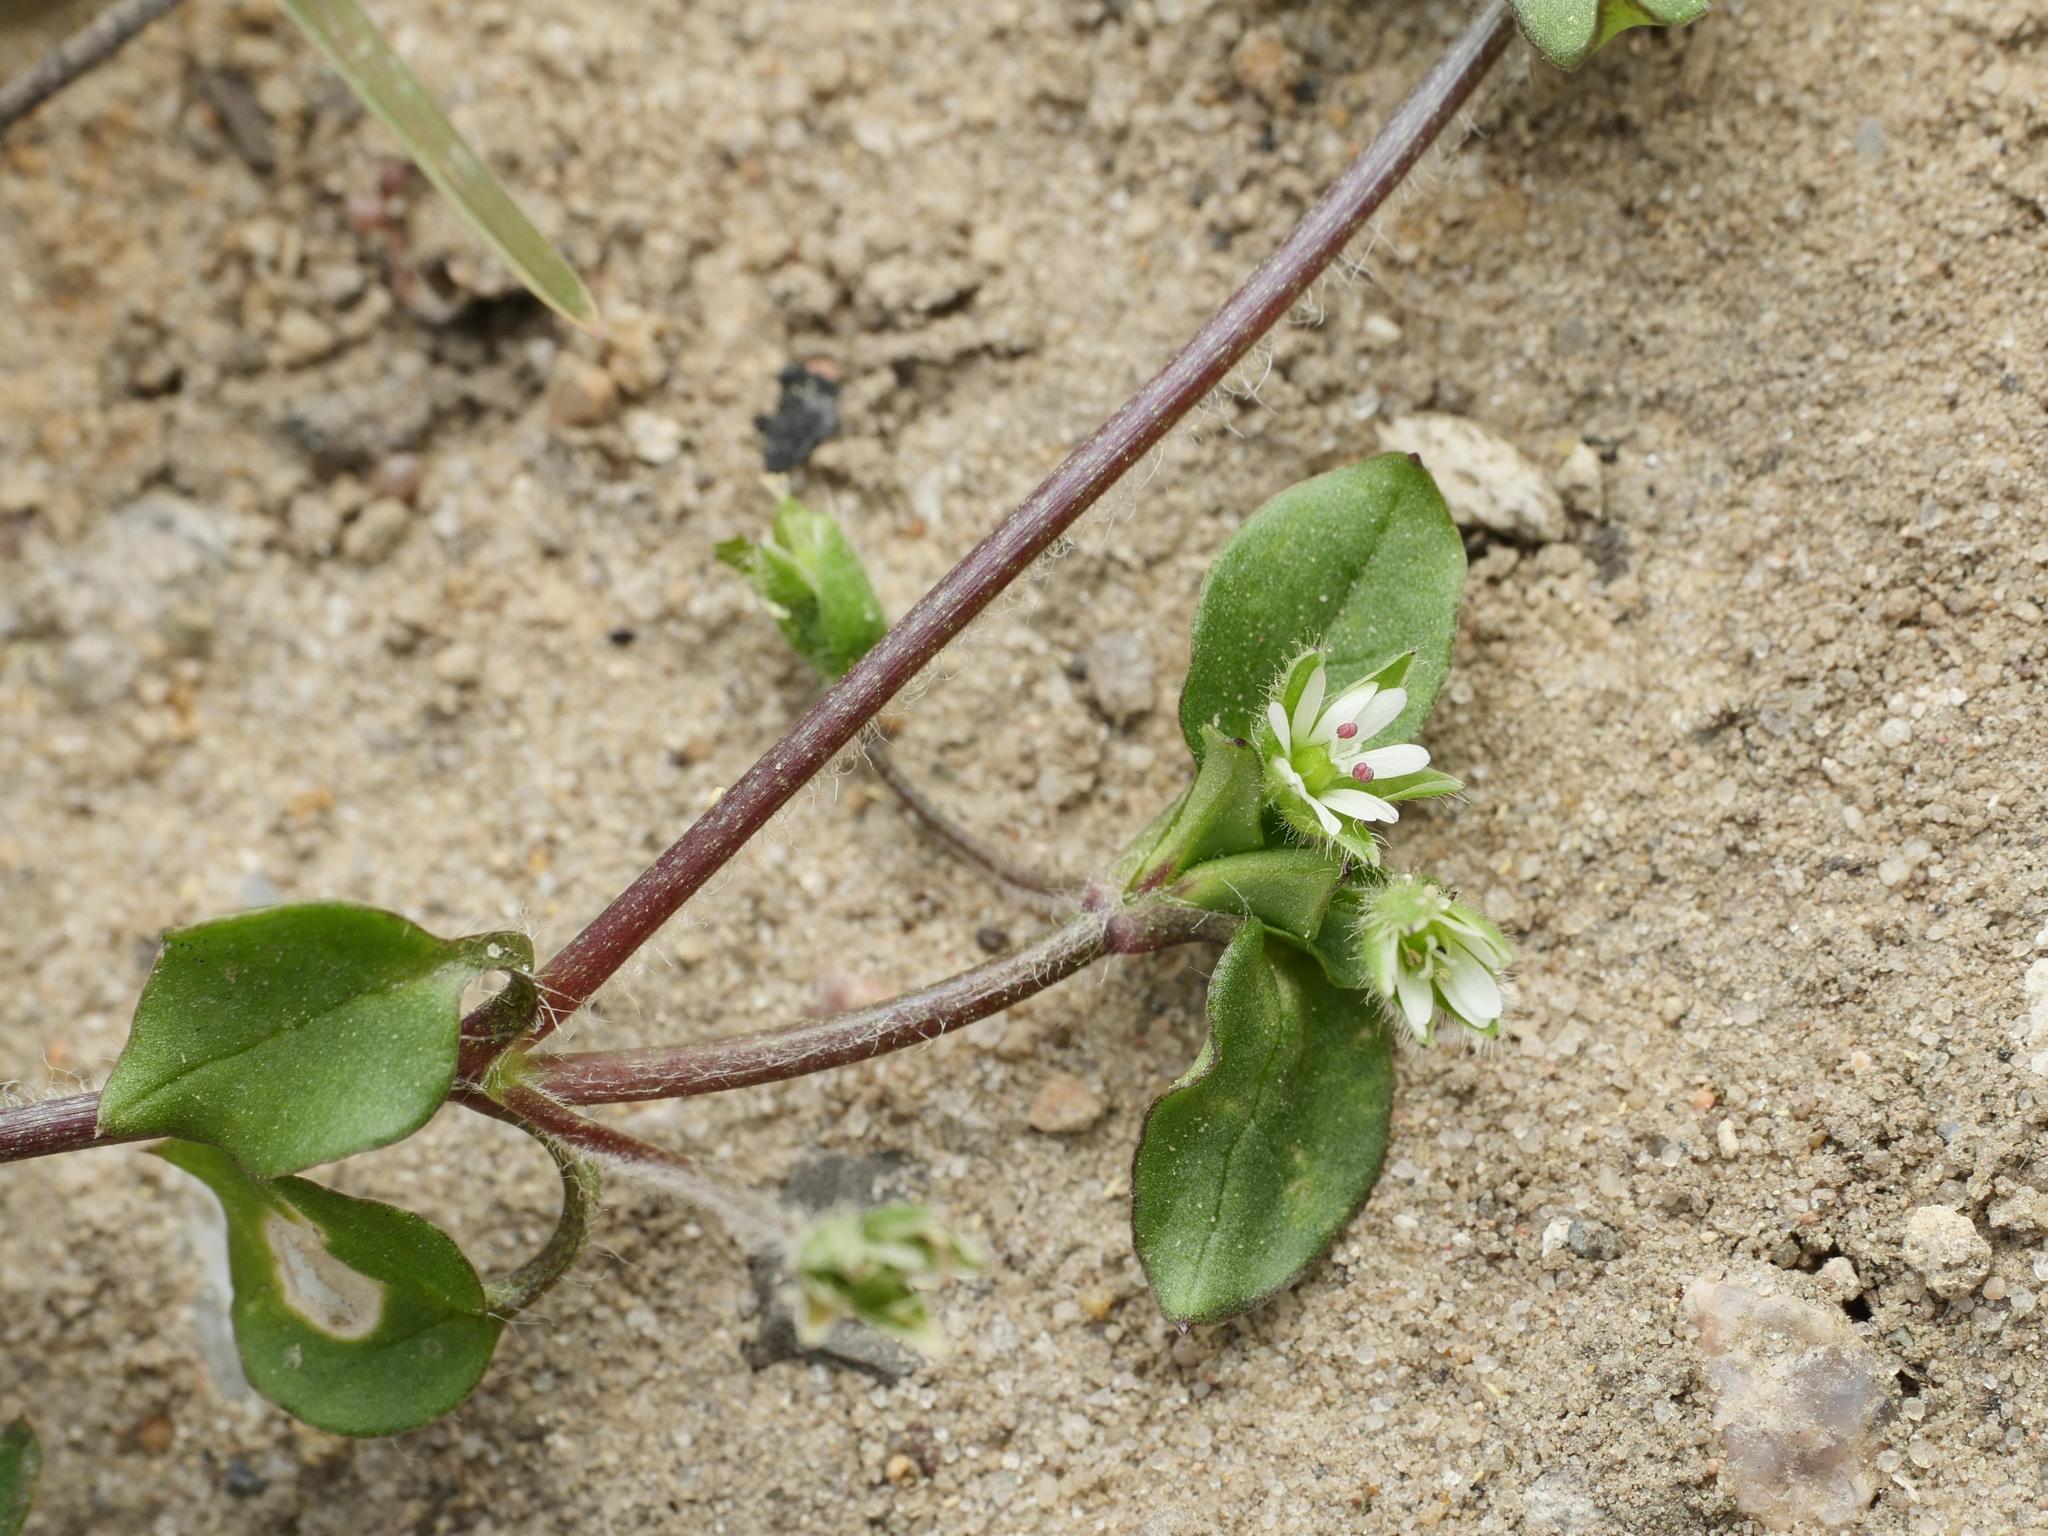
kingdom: Plantae
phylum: Tracheophyta
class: Magnoliopsida
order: Caryophyllales
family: Caryophyllaceae
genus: Stellaria
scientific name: Stellaria media
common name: Common chickweed
